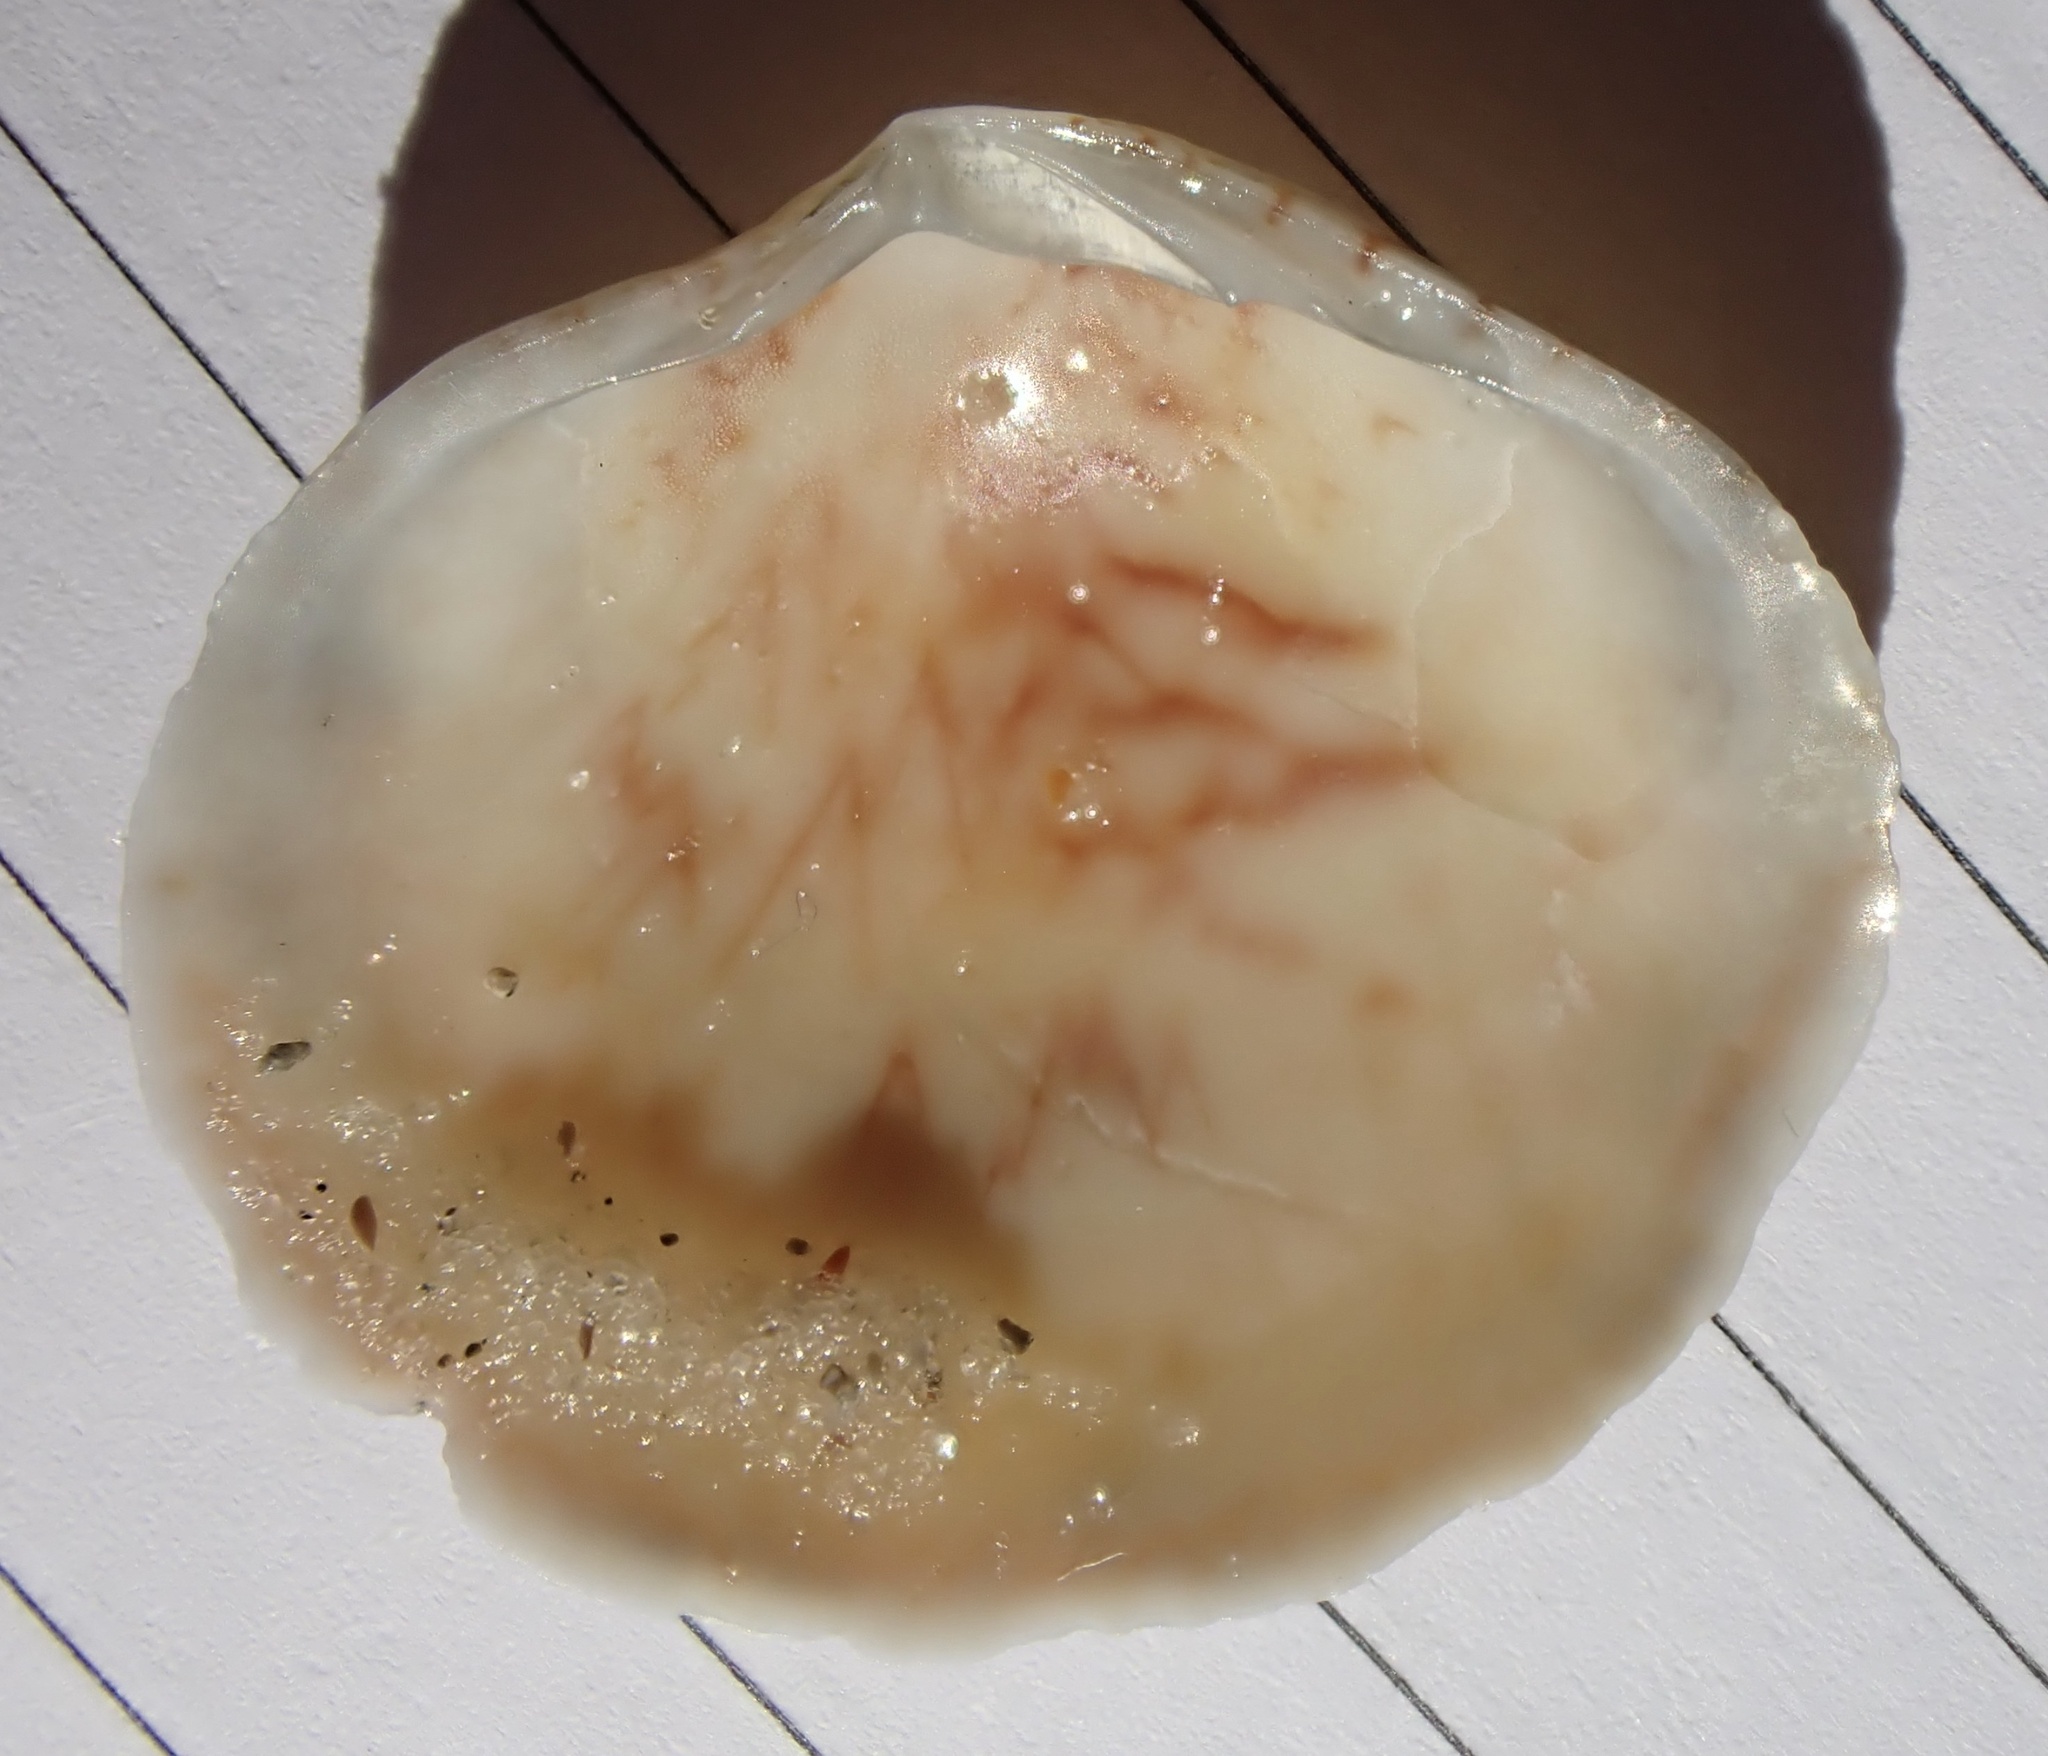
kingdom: Animalia
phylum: Mollusca
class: Bivalvia
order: Cardiida
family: Semelidae
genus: Semele
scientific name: Semele proficua
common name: White atlantic semele
